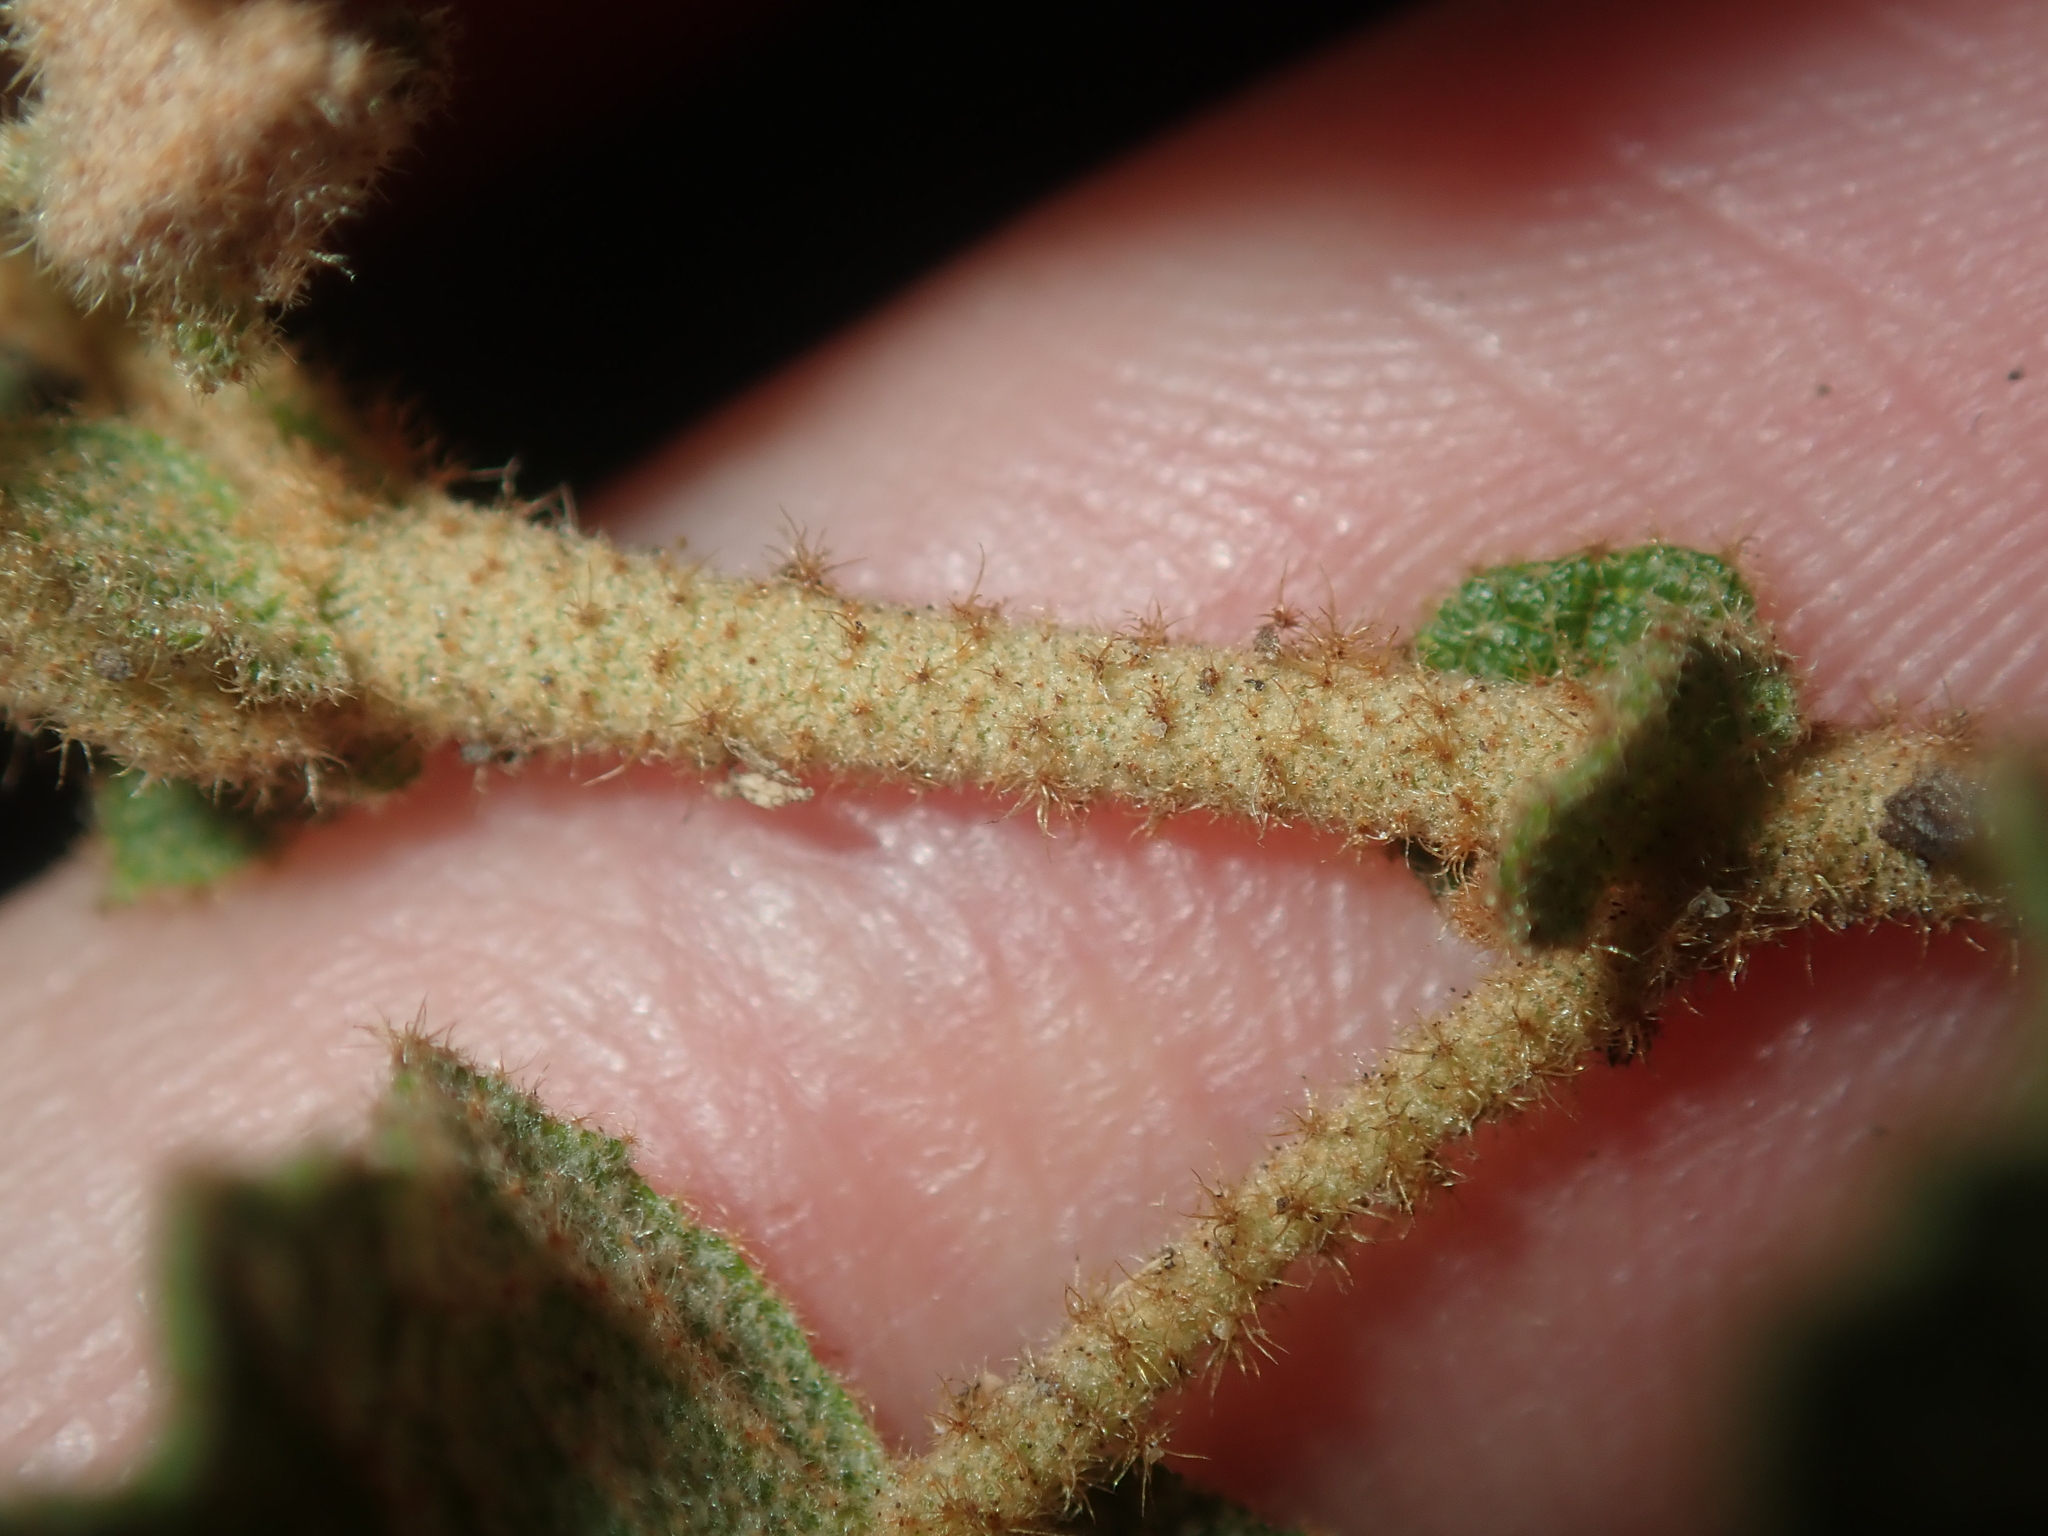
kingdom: Plantae
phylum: Tracheophyta
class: Magnoliopsida
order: Malvales
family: Malvaceae
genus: Thomasia
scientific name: Thomasia foliosa
